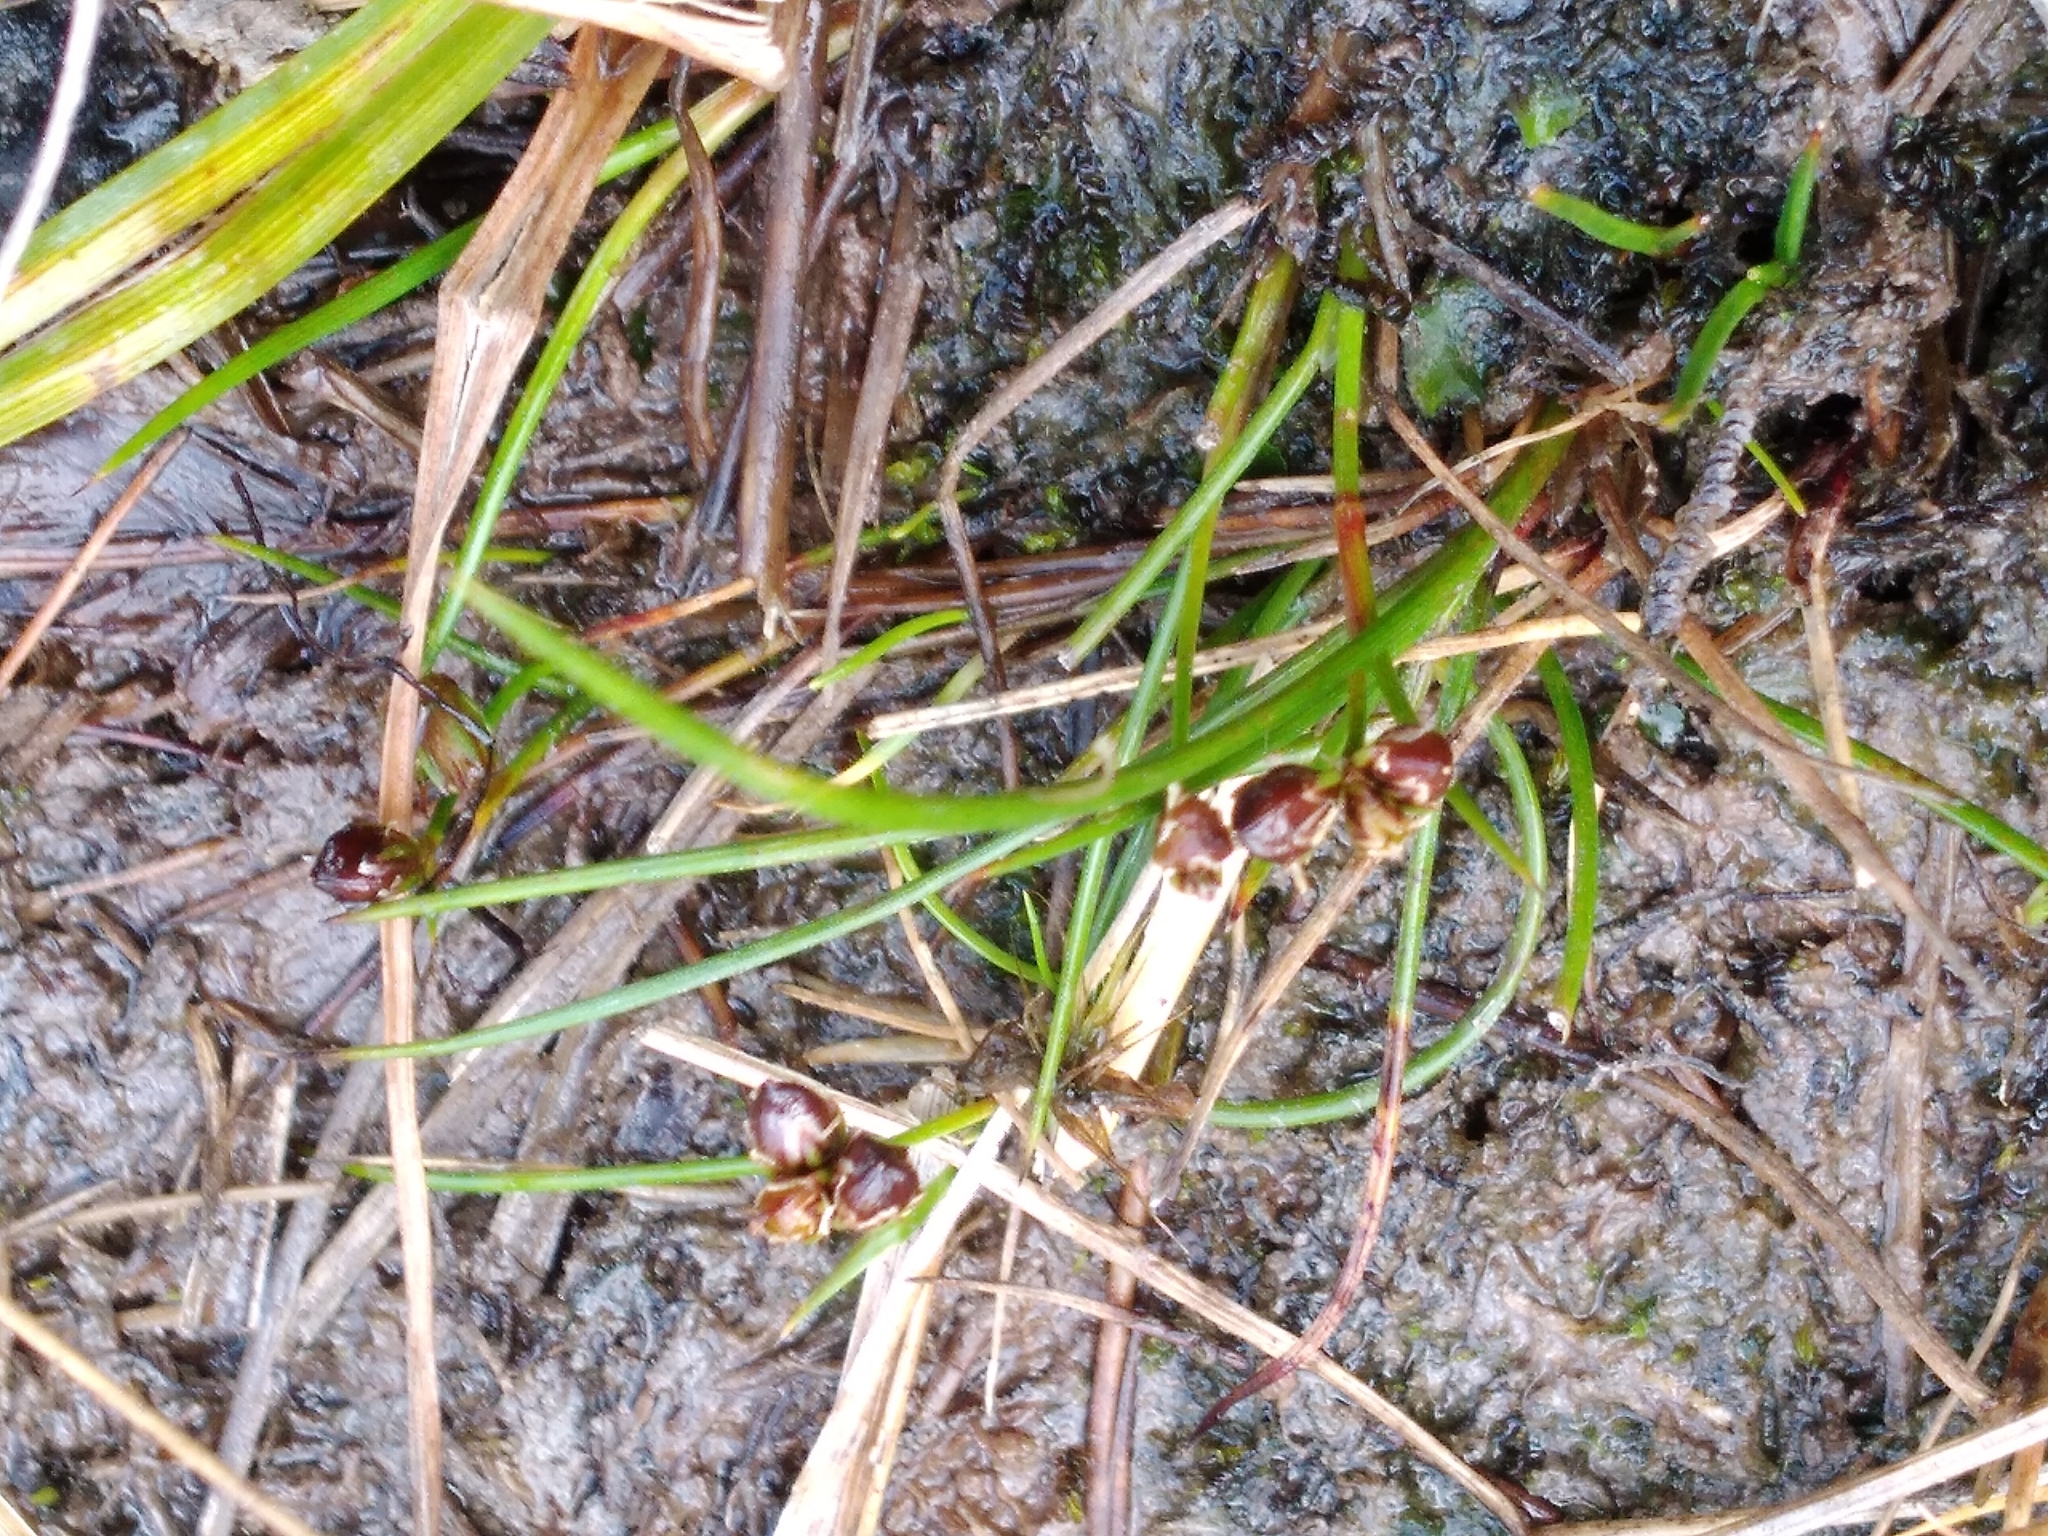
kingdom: Plantae
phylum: Tracheophyta
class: Liliopsida
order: Poales
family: Juncaceae
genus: Juncus
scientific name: Juncus novae-zelandiae
